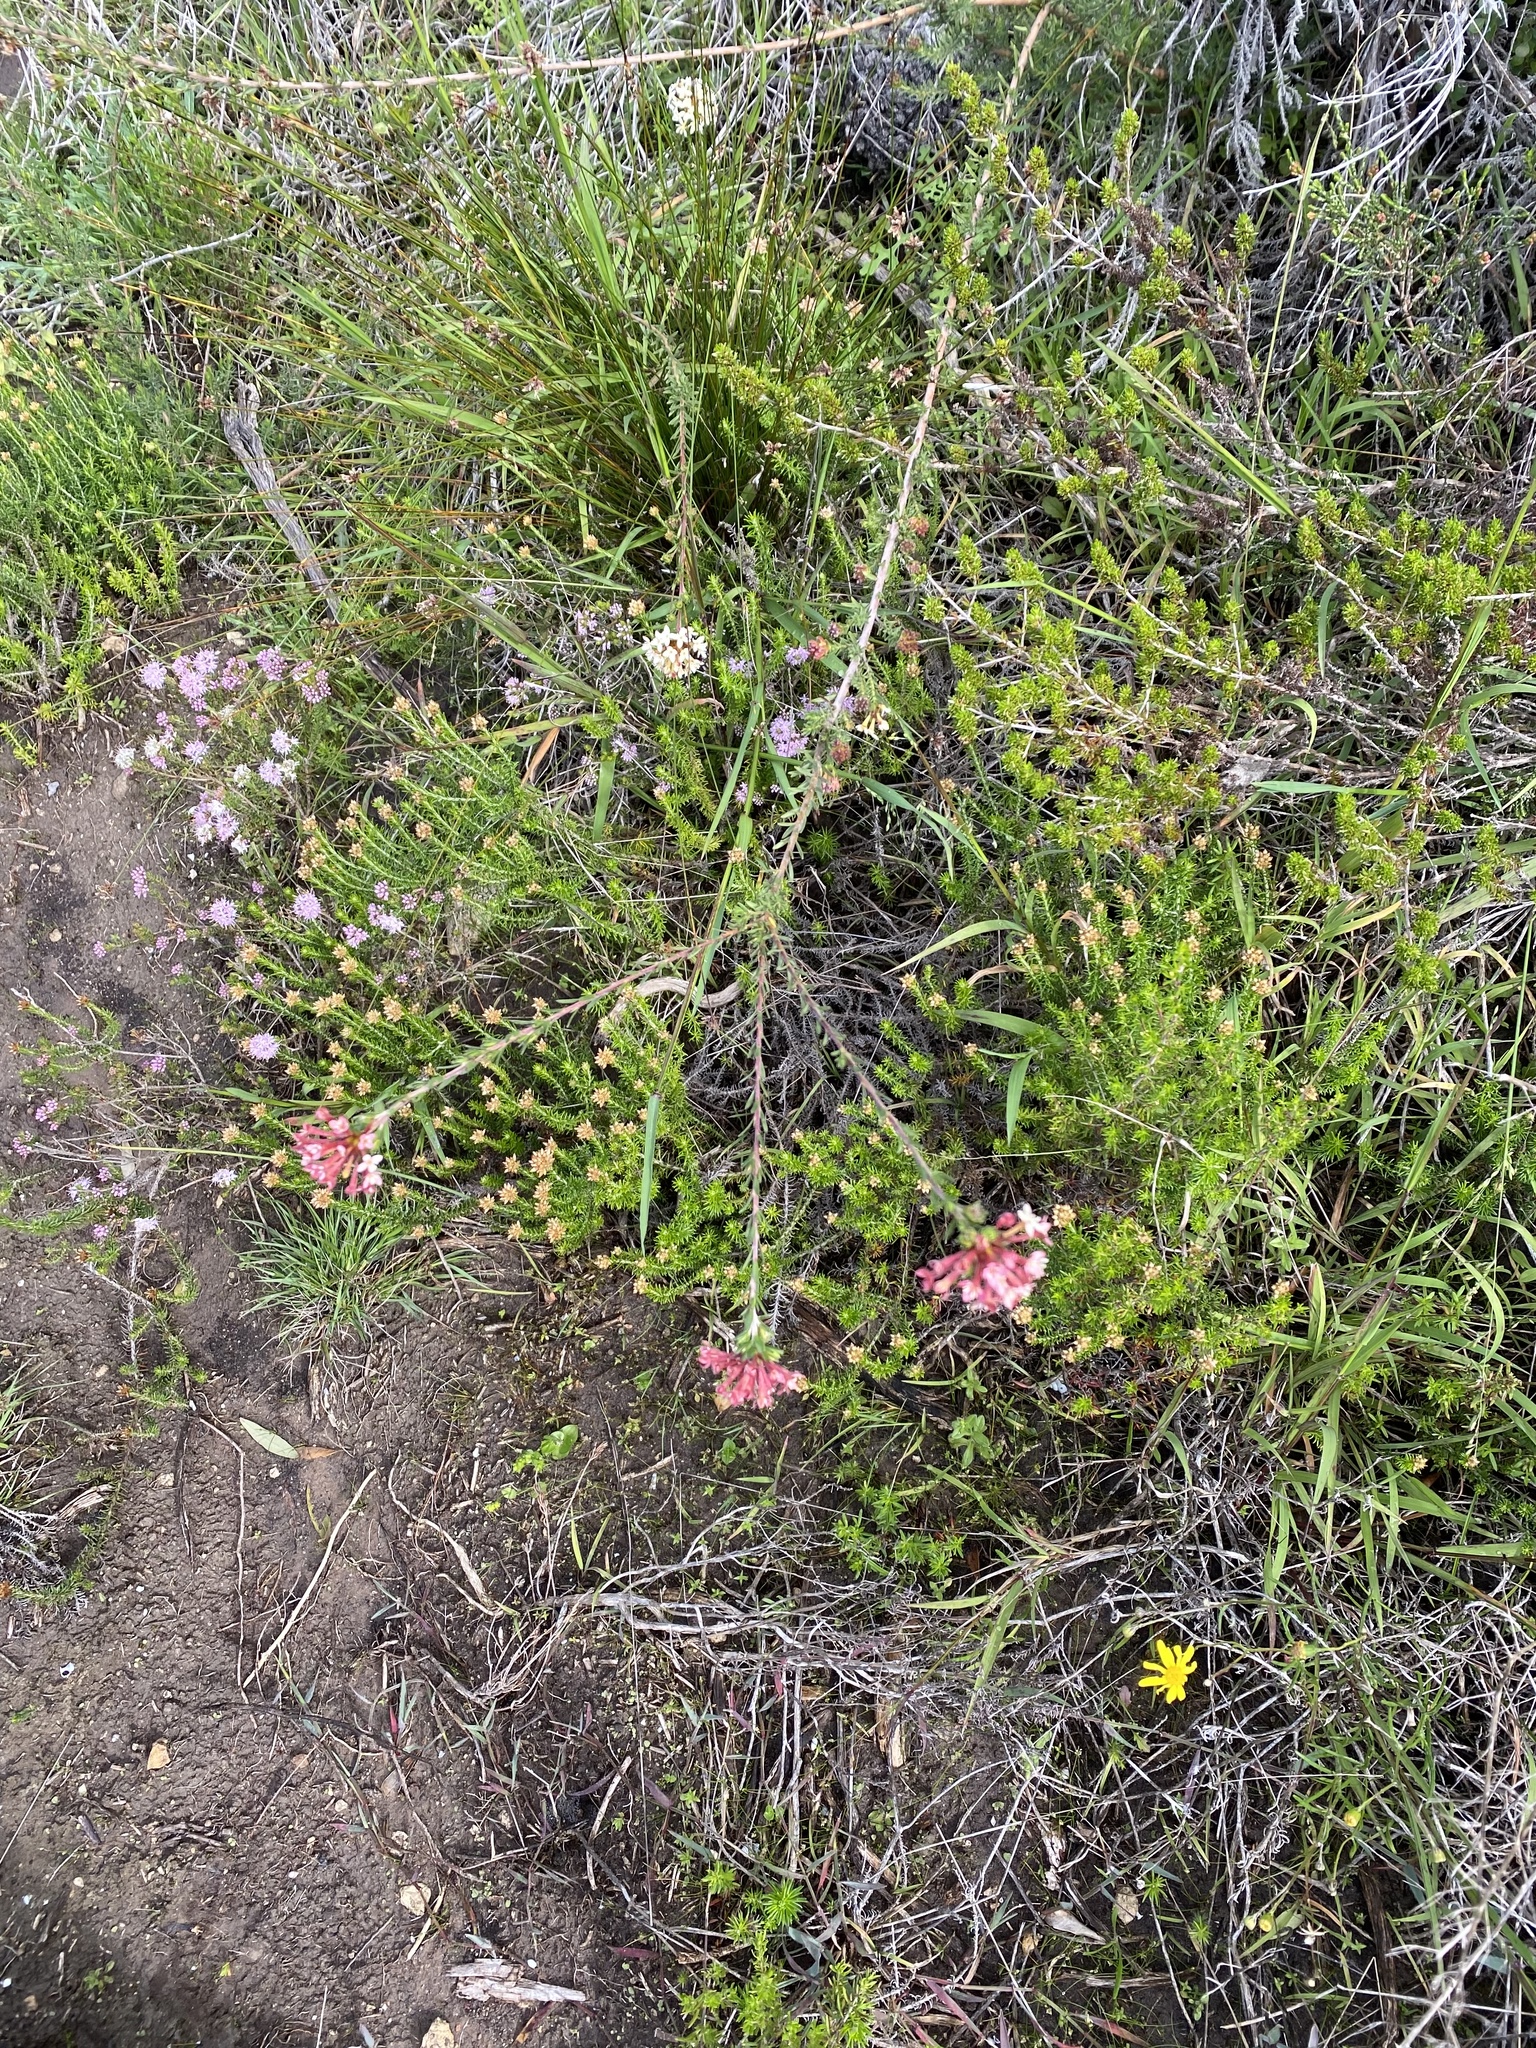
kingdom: Plantae
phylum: Tracheophyta
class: Magnoliopsida
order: Malvales
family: Thymelaeaceae
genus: Gnidia
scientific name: Gnidia squarrosa
